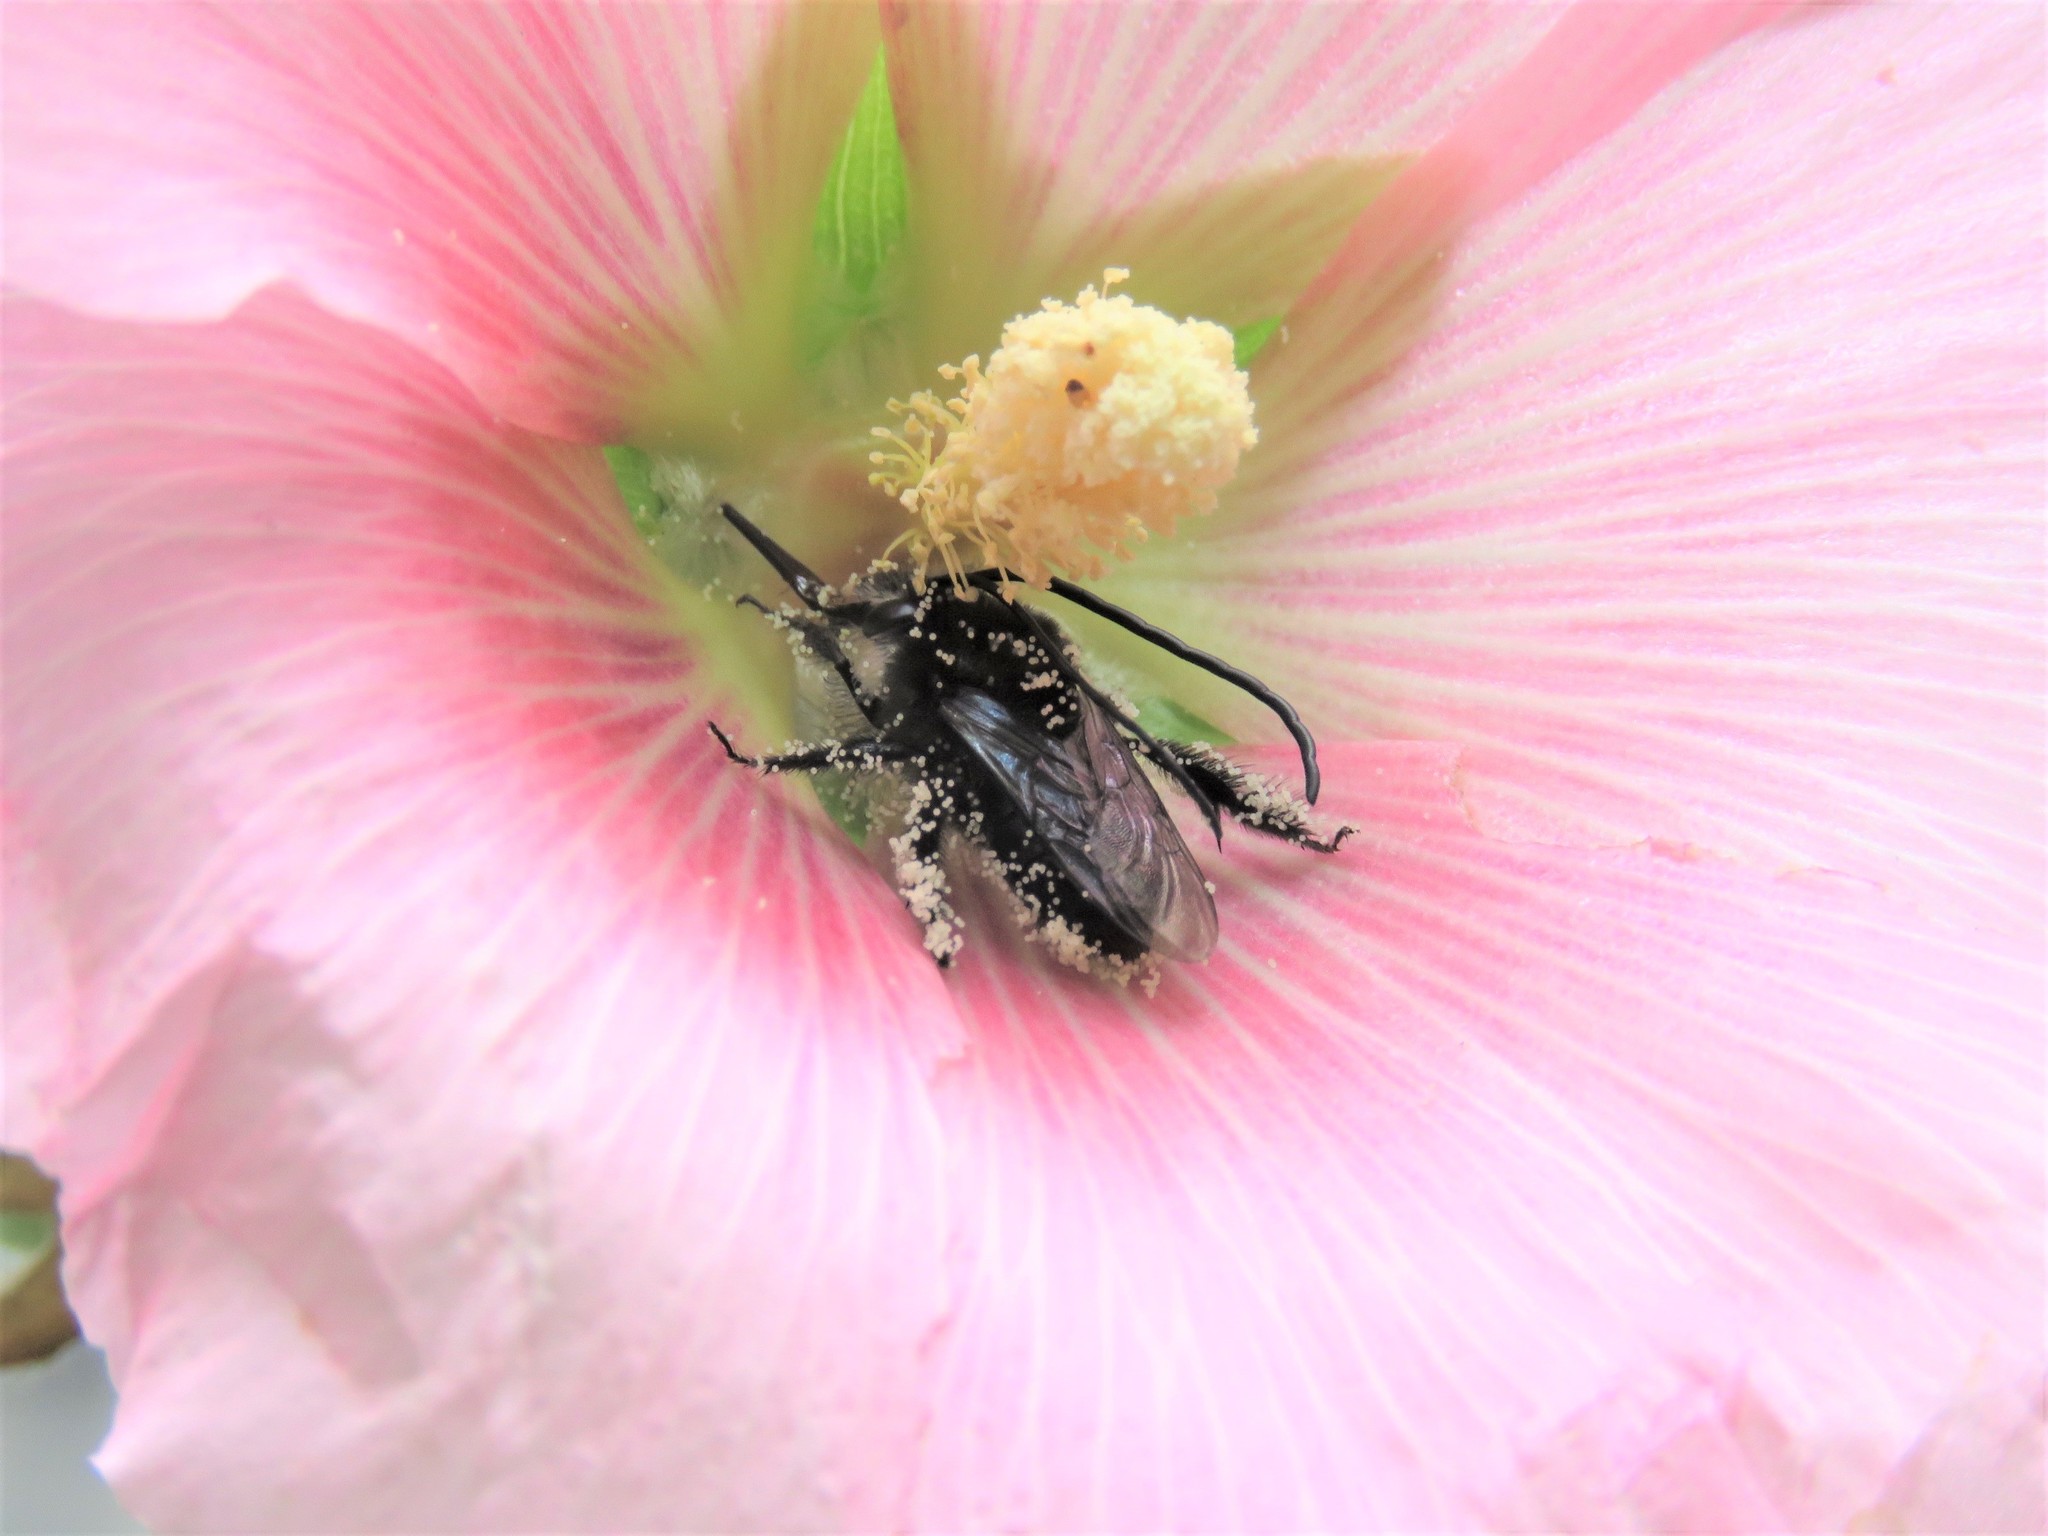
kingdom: Animalia
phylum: Arthropoda
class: Insecta
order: Hymenoptera
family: Apidae
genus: Thygater
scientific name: Thygater aethiops
